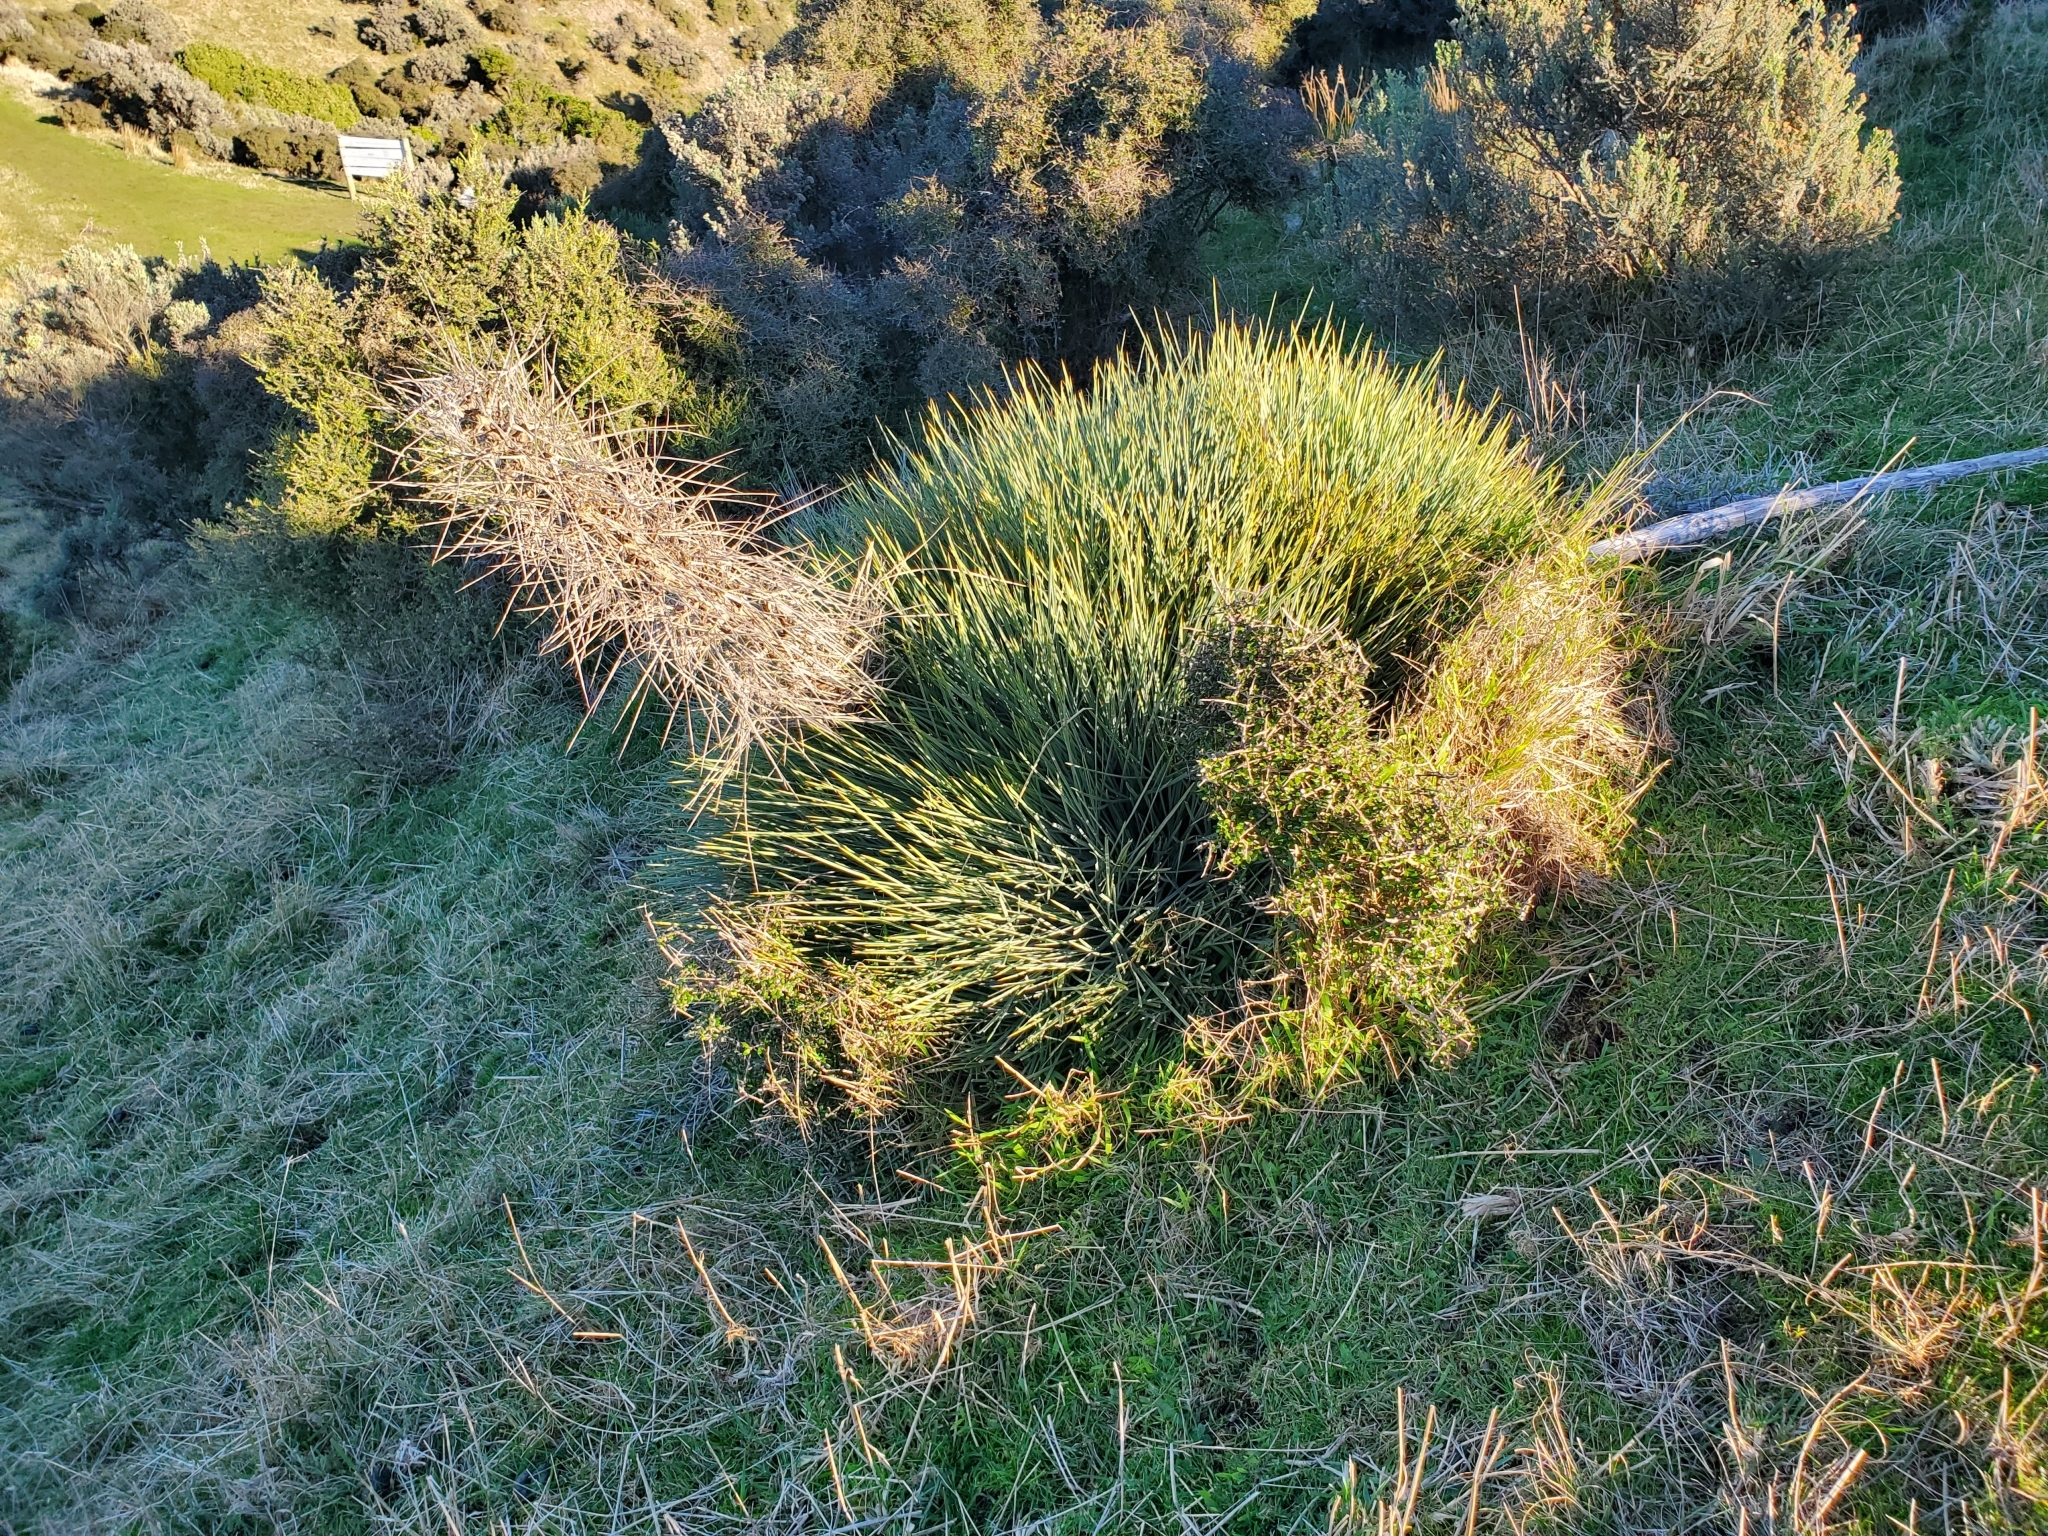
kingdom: Plantae
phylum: Tracheophyta
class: Magnoliopsida
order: Apiales
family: Apiaceae
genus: Aciphylla
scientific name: Aciphylla squarrosa
